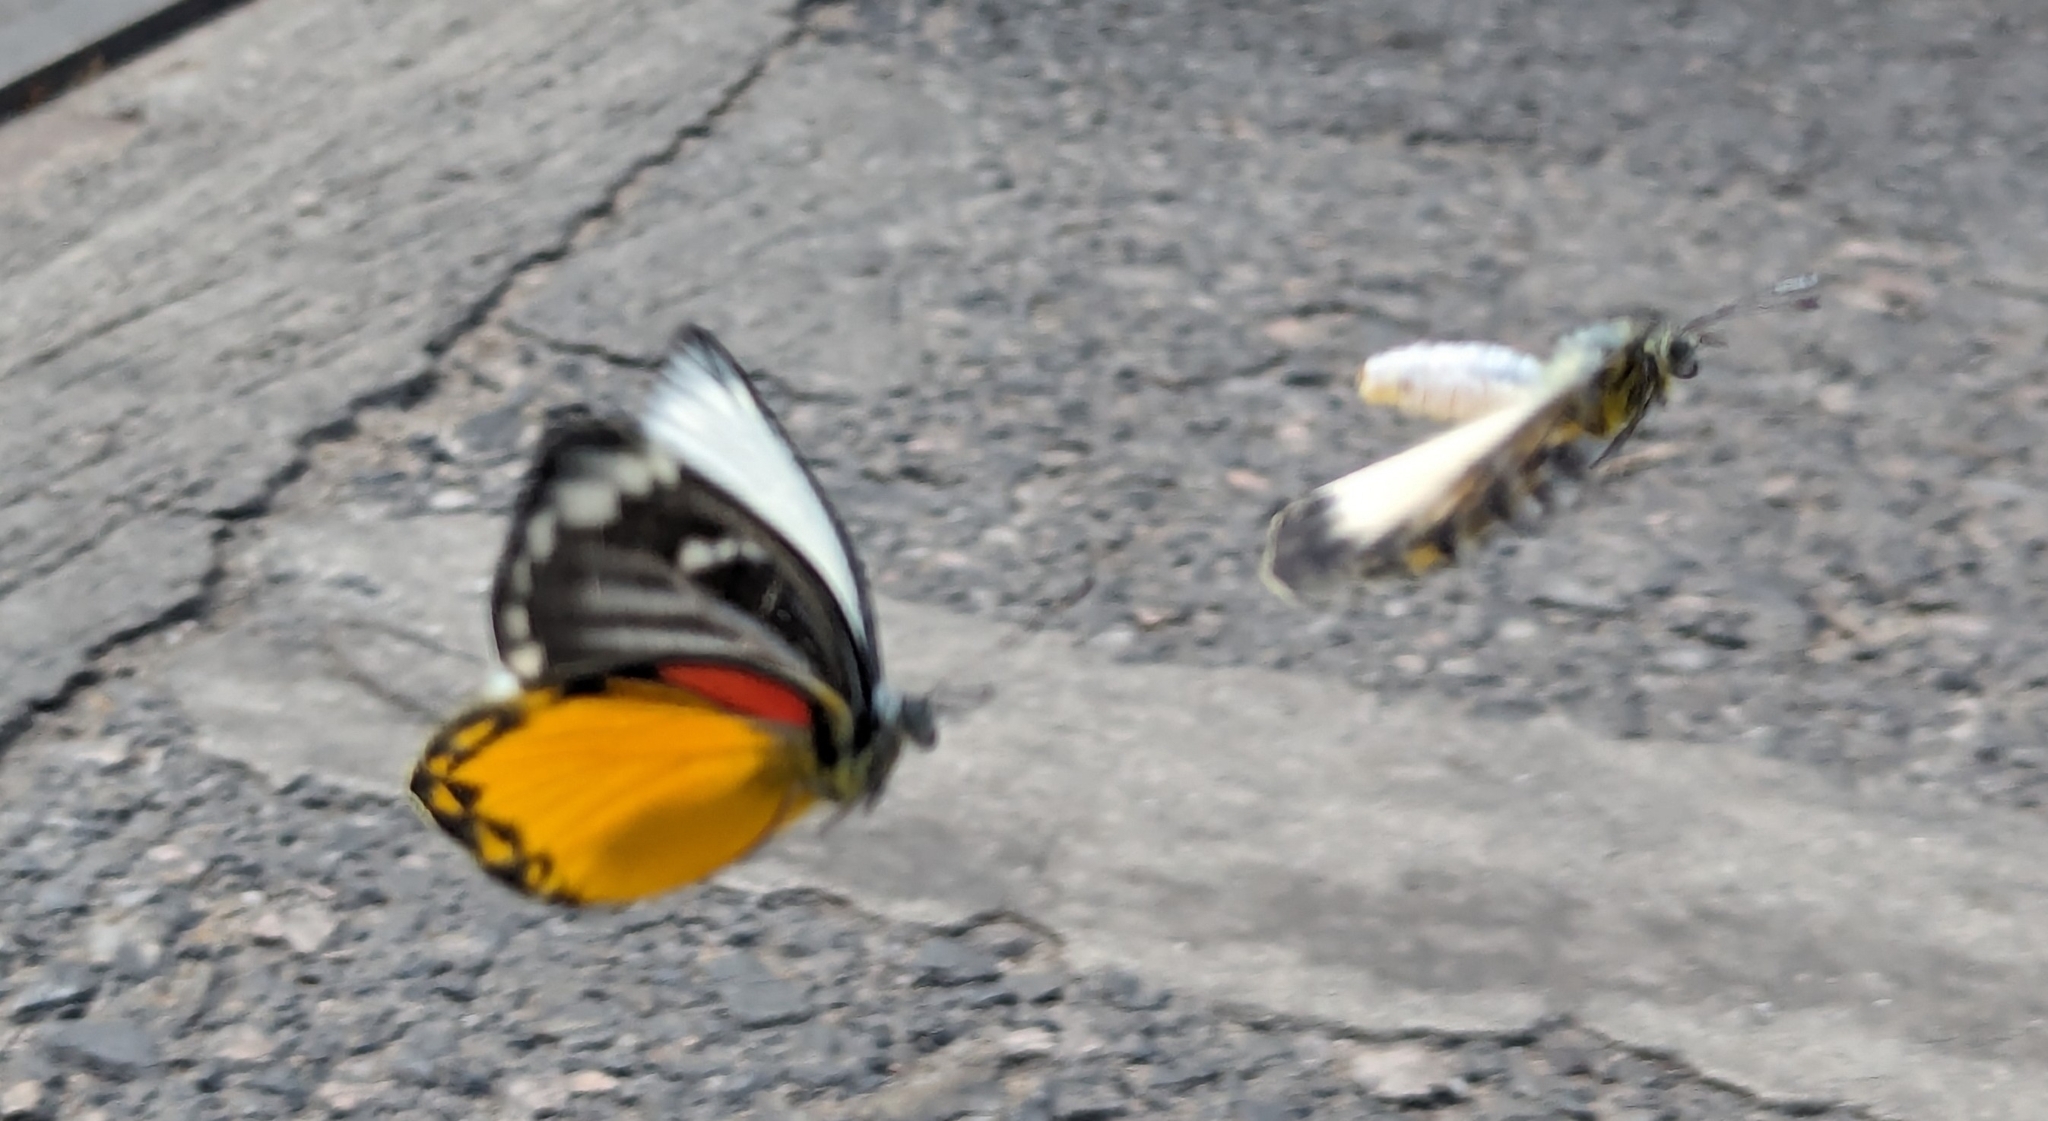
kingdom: Animalia
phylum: Arthropoda
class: Insecta
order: Lepidoptera
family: Pieridae
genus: Delias
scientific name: Delias descombesi
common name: Red-spot jezebel
